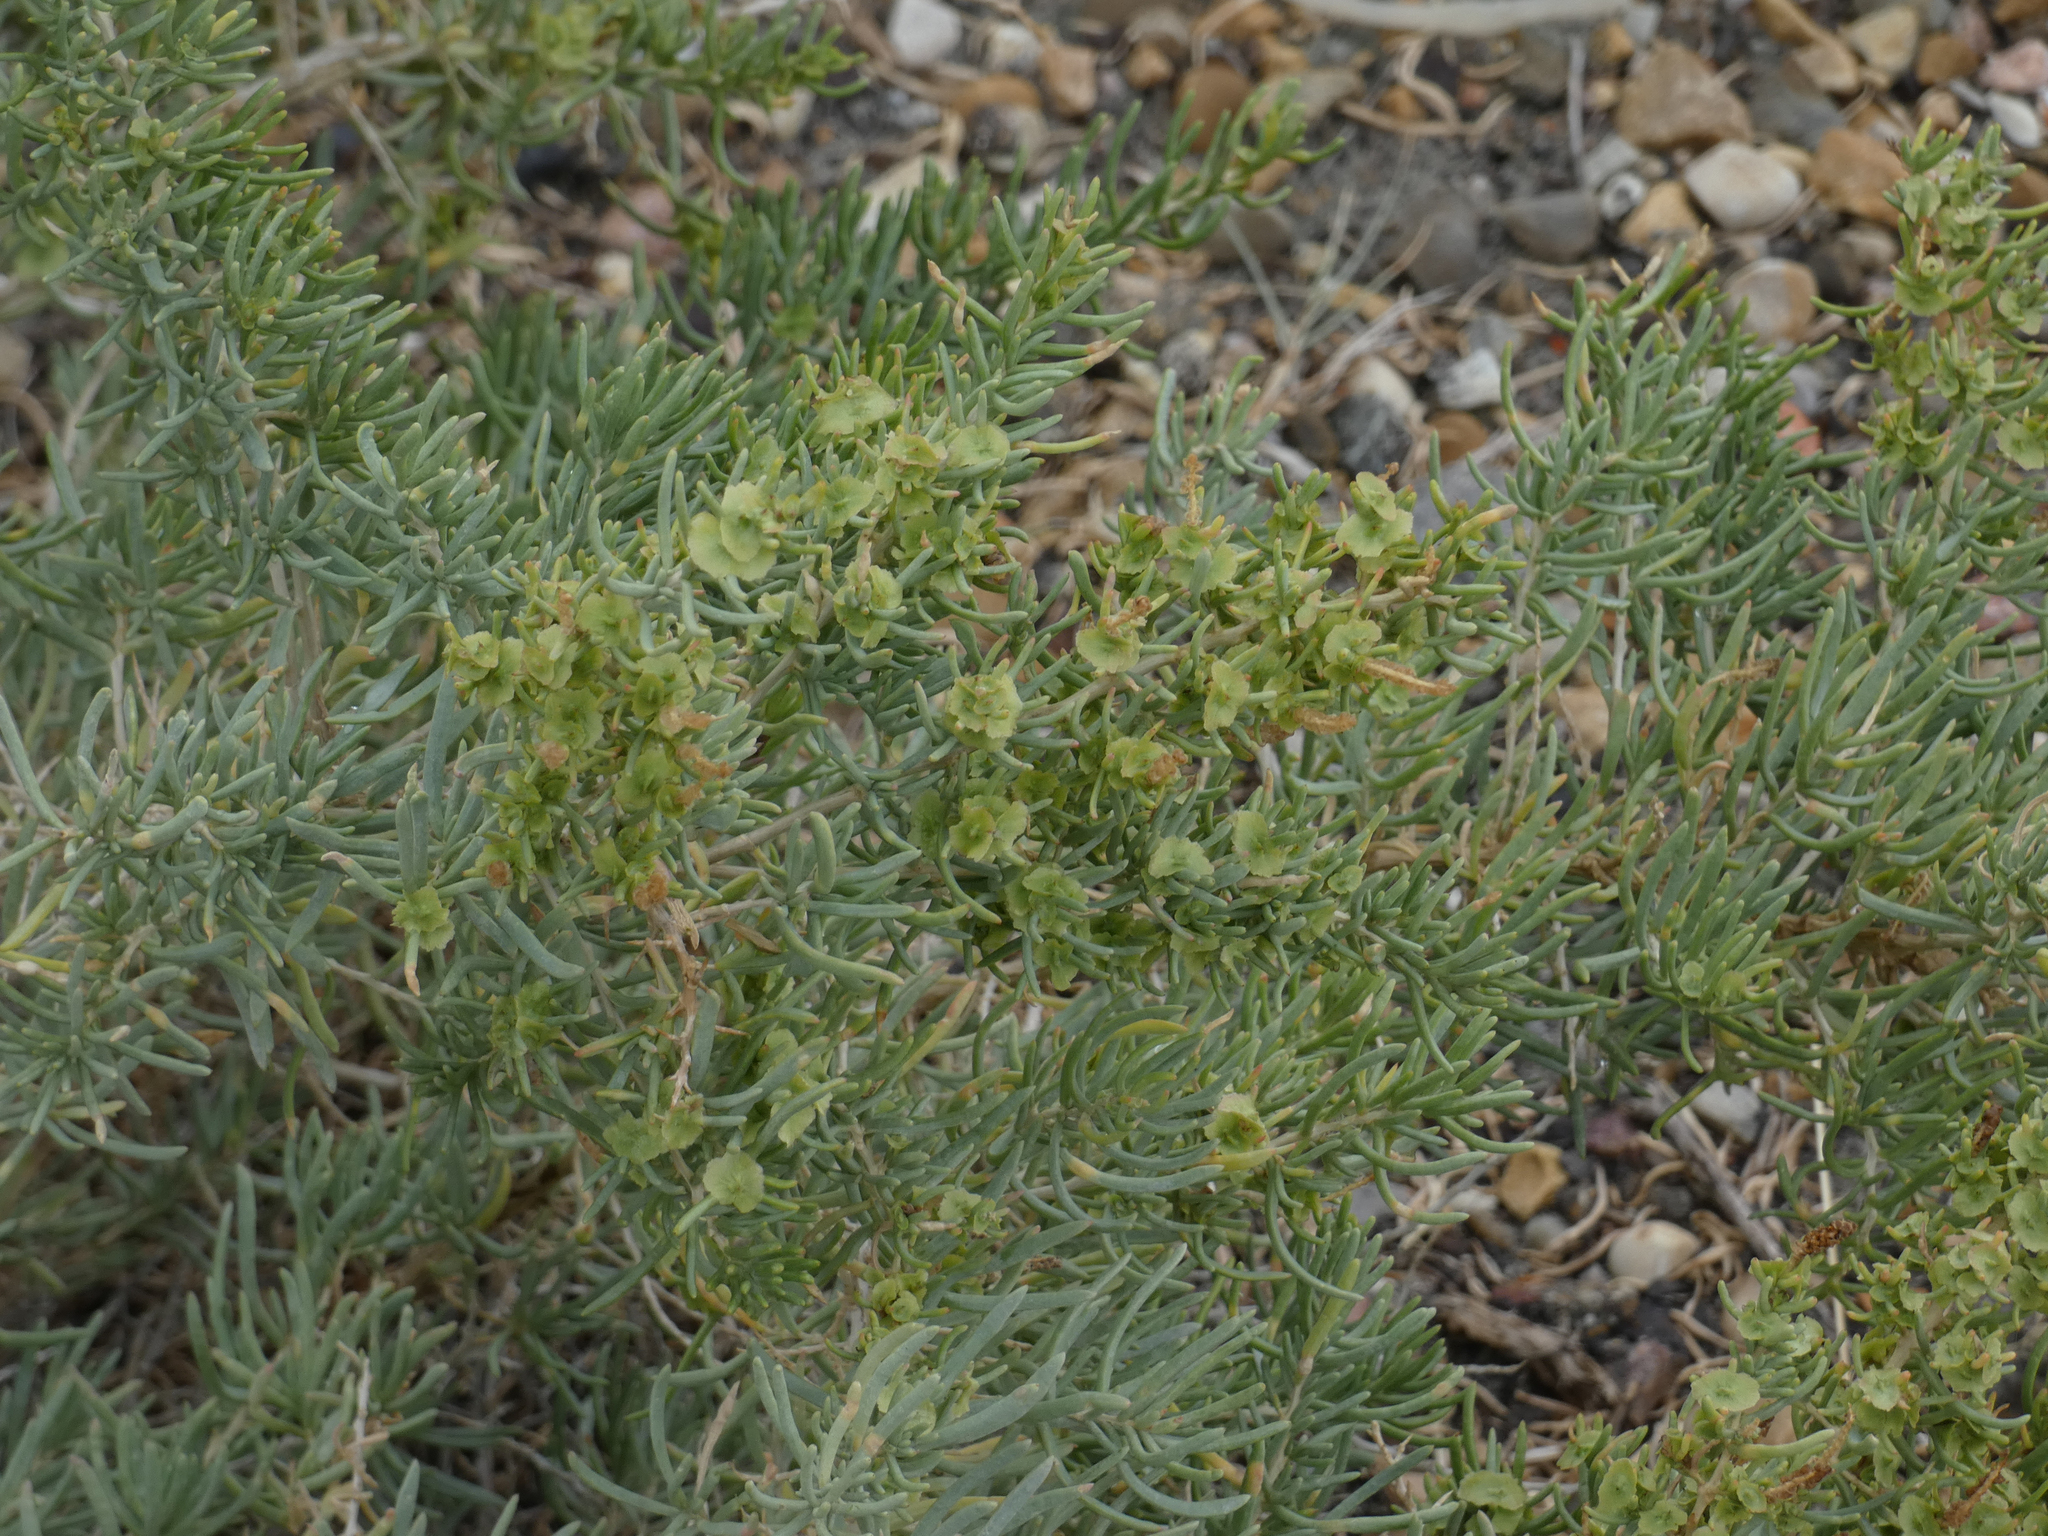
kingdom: Plantae
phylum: Tracheophyta
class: Magnoliopsida
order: Caryophyllales
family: Sarcobataceae
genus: Sarcobatus
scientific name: Sarcobatus vermiculatus
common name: Greasewood
